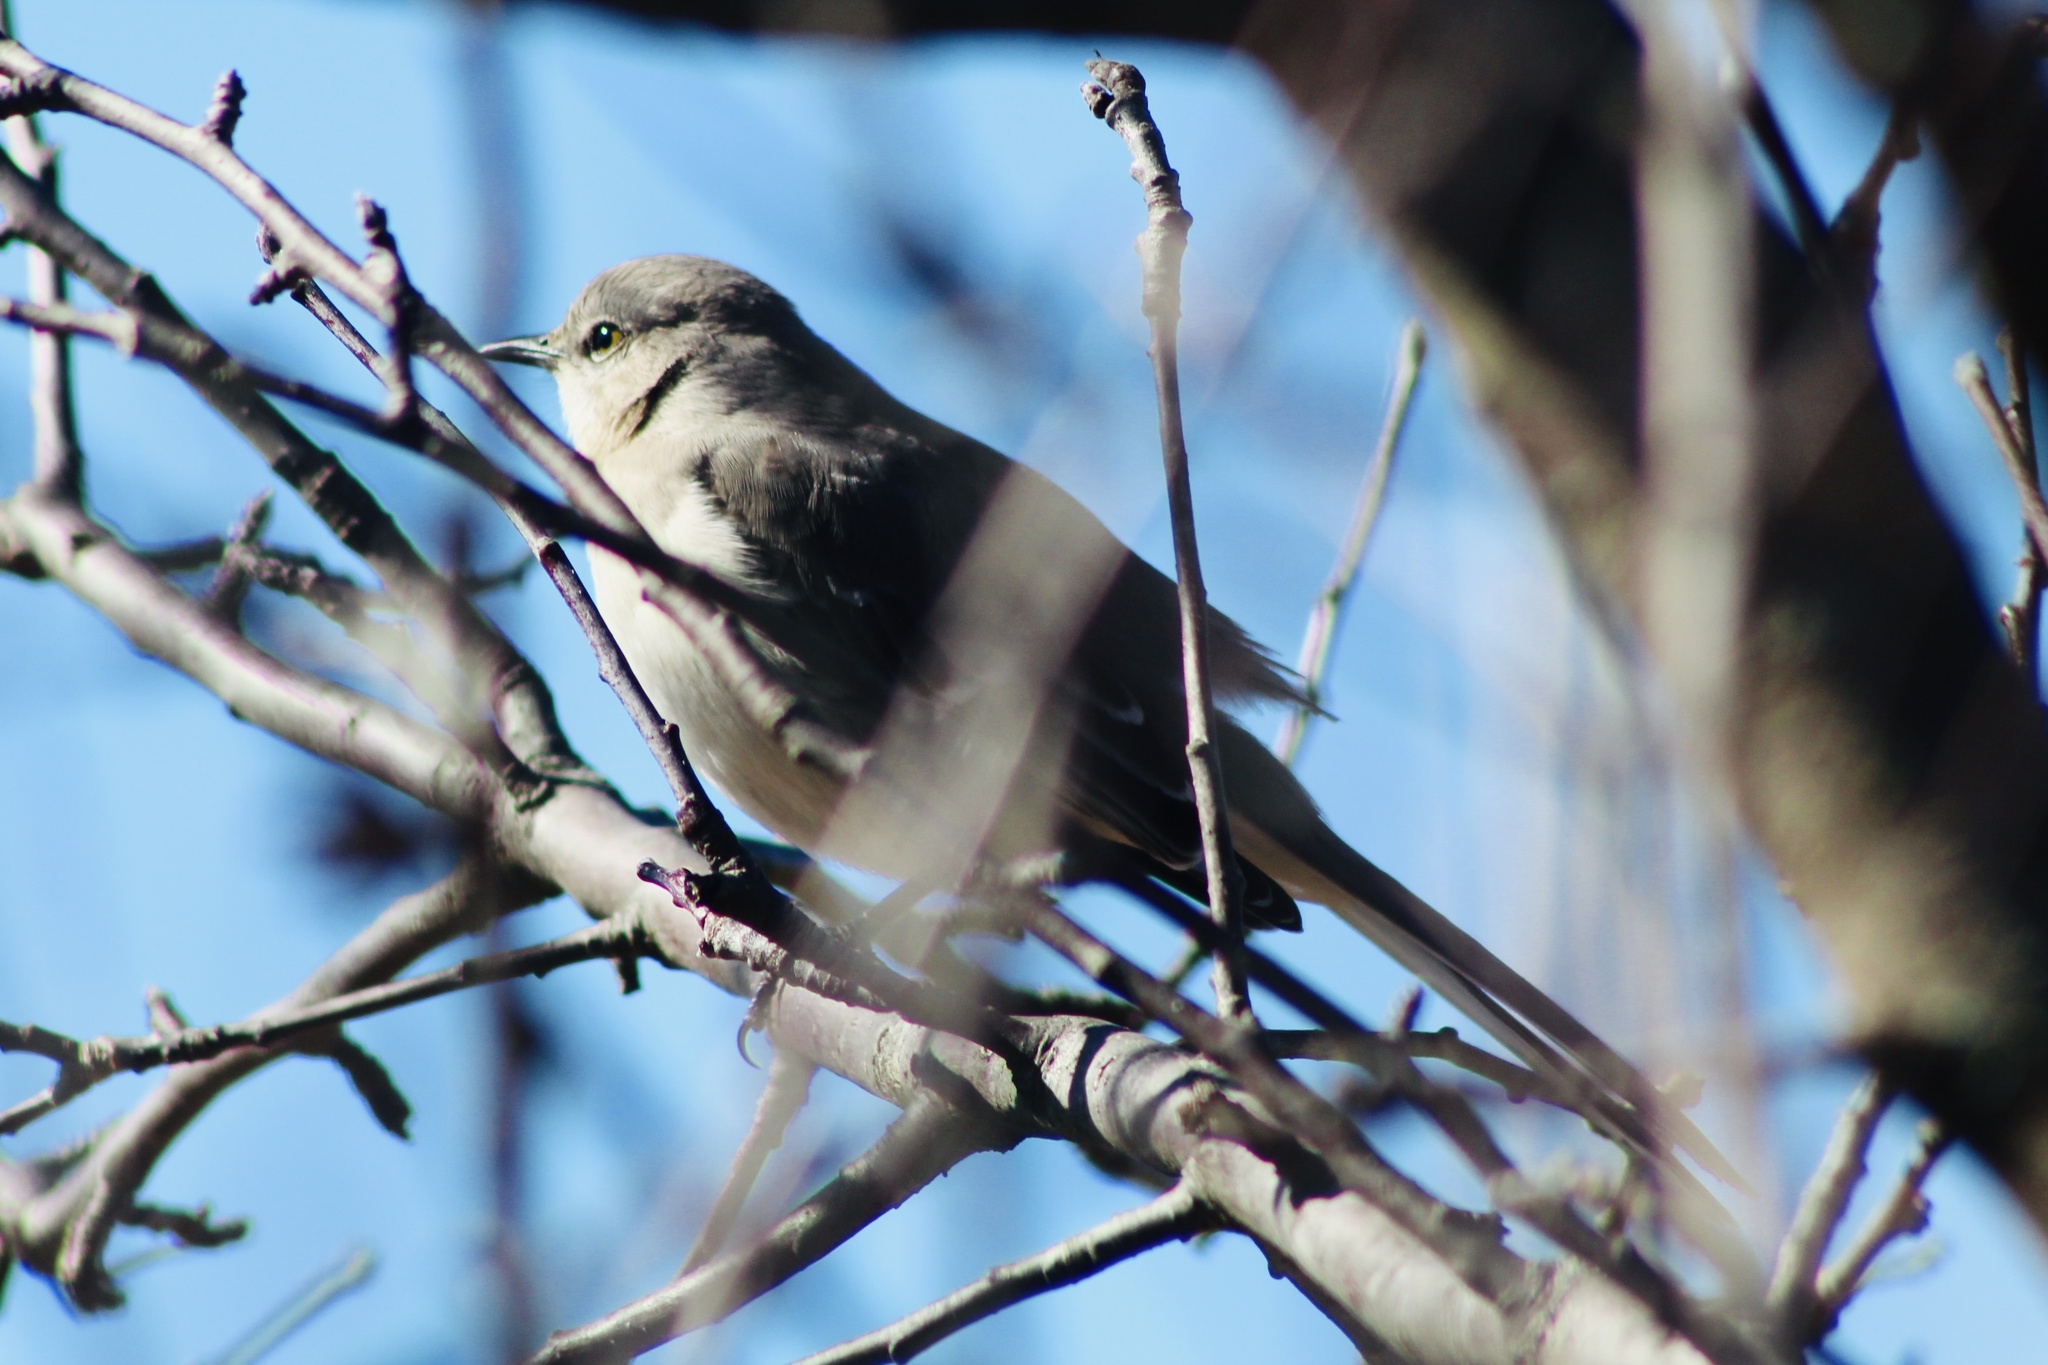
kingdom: Animalia
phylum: Chordata
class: Aves
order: Passeriformes
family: Mimidae
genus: Mimus
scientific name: Mimus polyglottos
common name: Northern mockingbird
